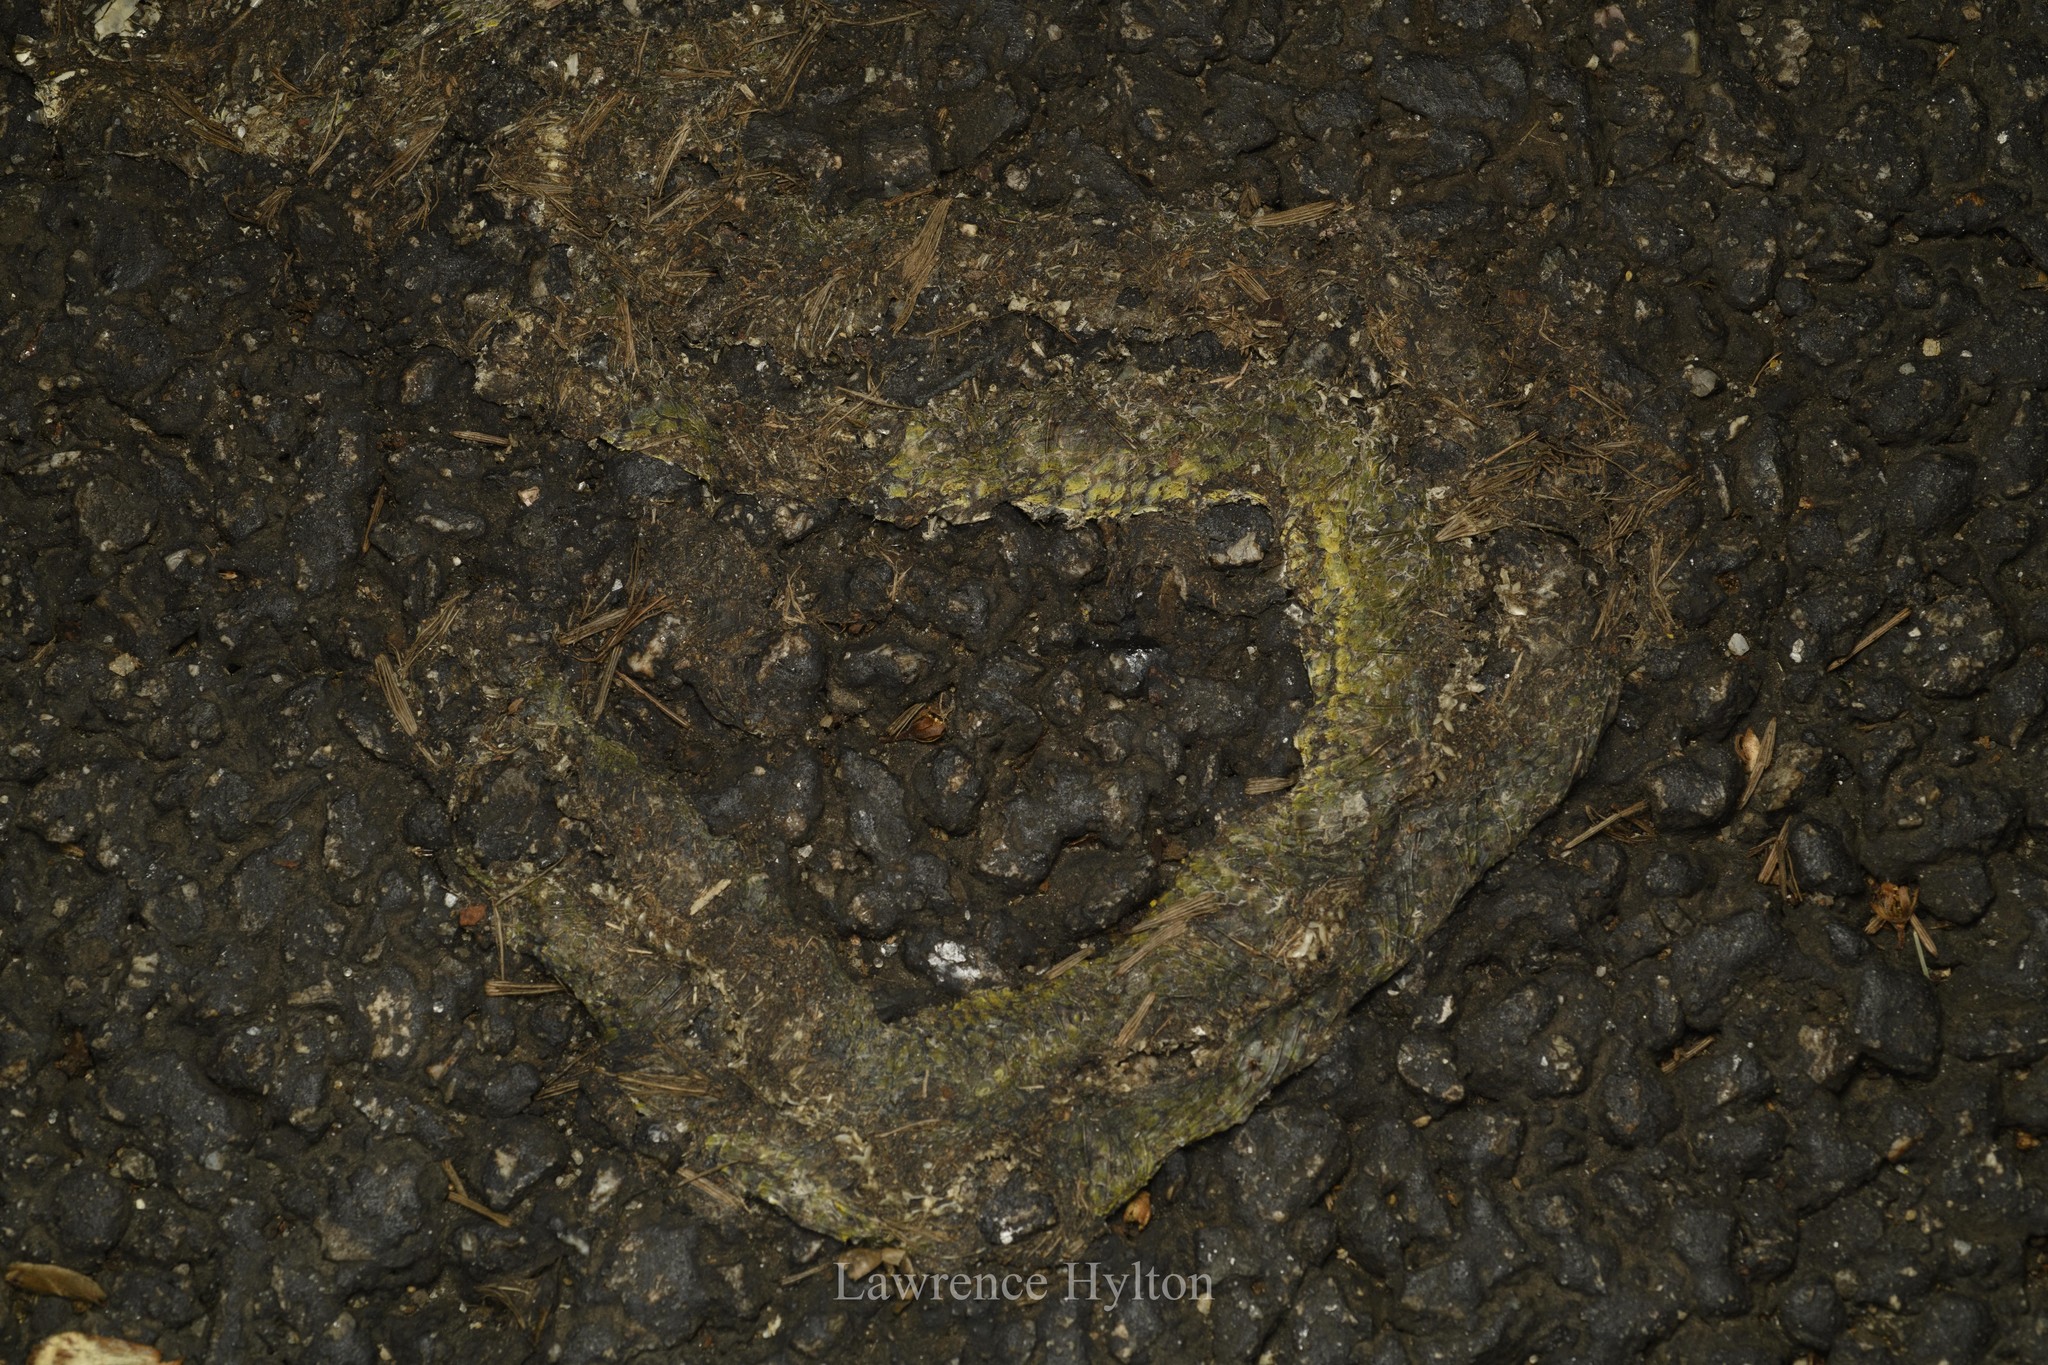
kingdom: Animalia
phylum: Chordata
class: Squamata
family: Viperidae
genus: Trimeresurus
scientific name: Trimeresurus albolabris
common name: White-lipped pitviper
